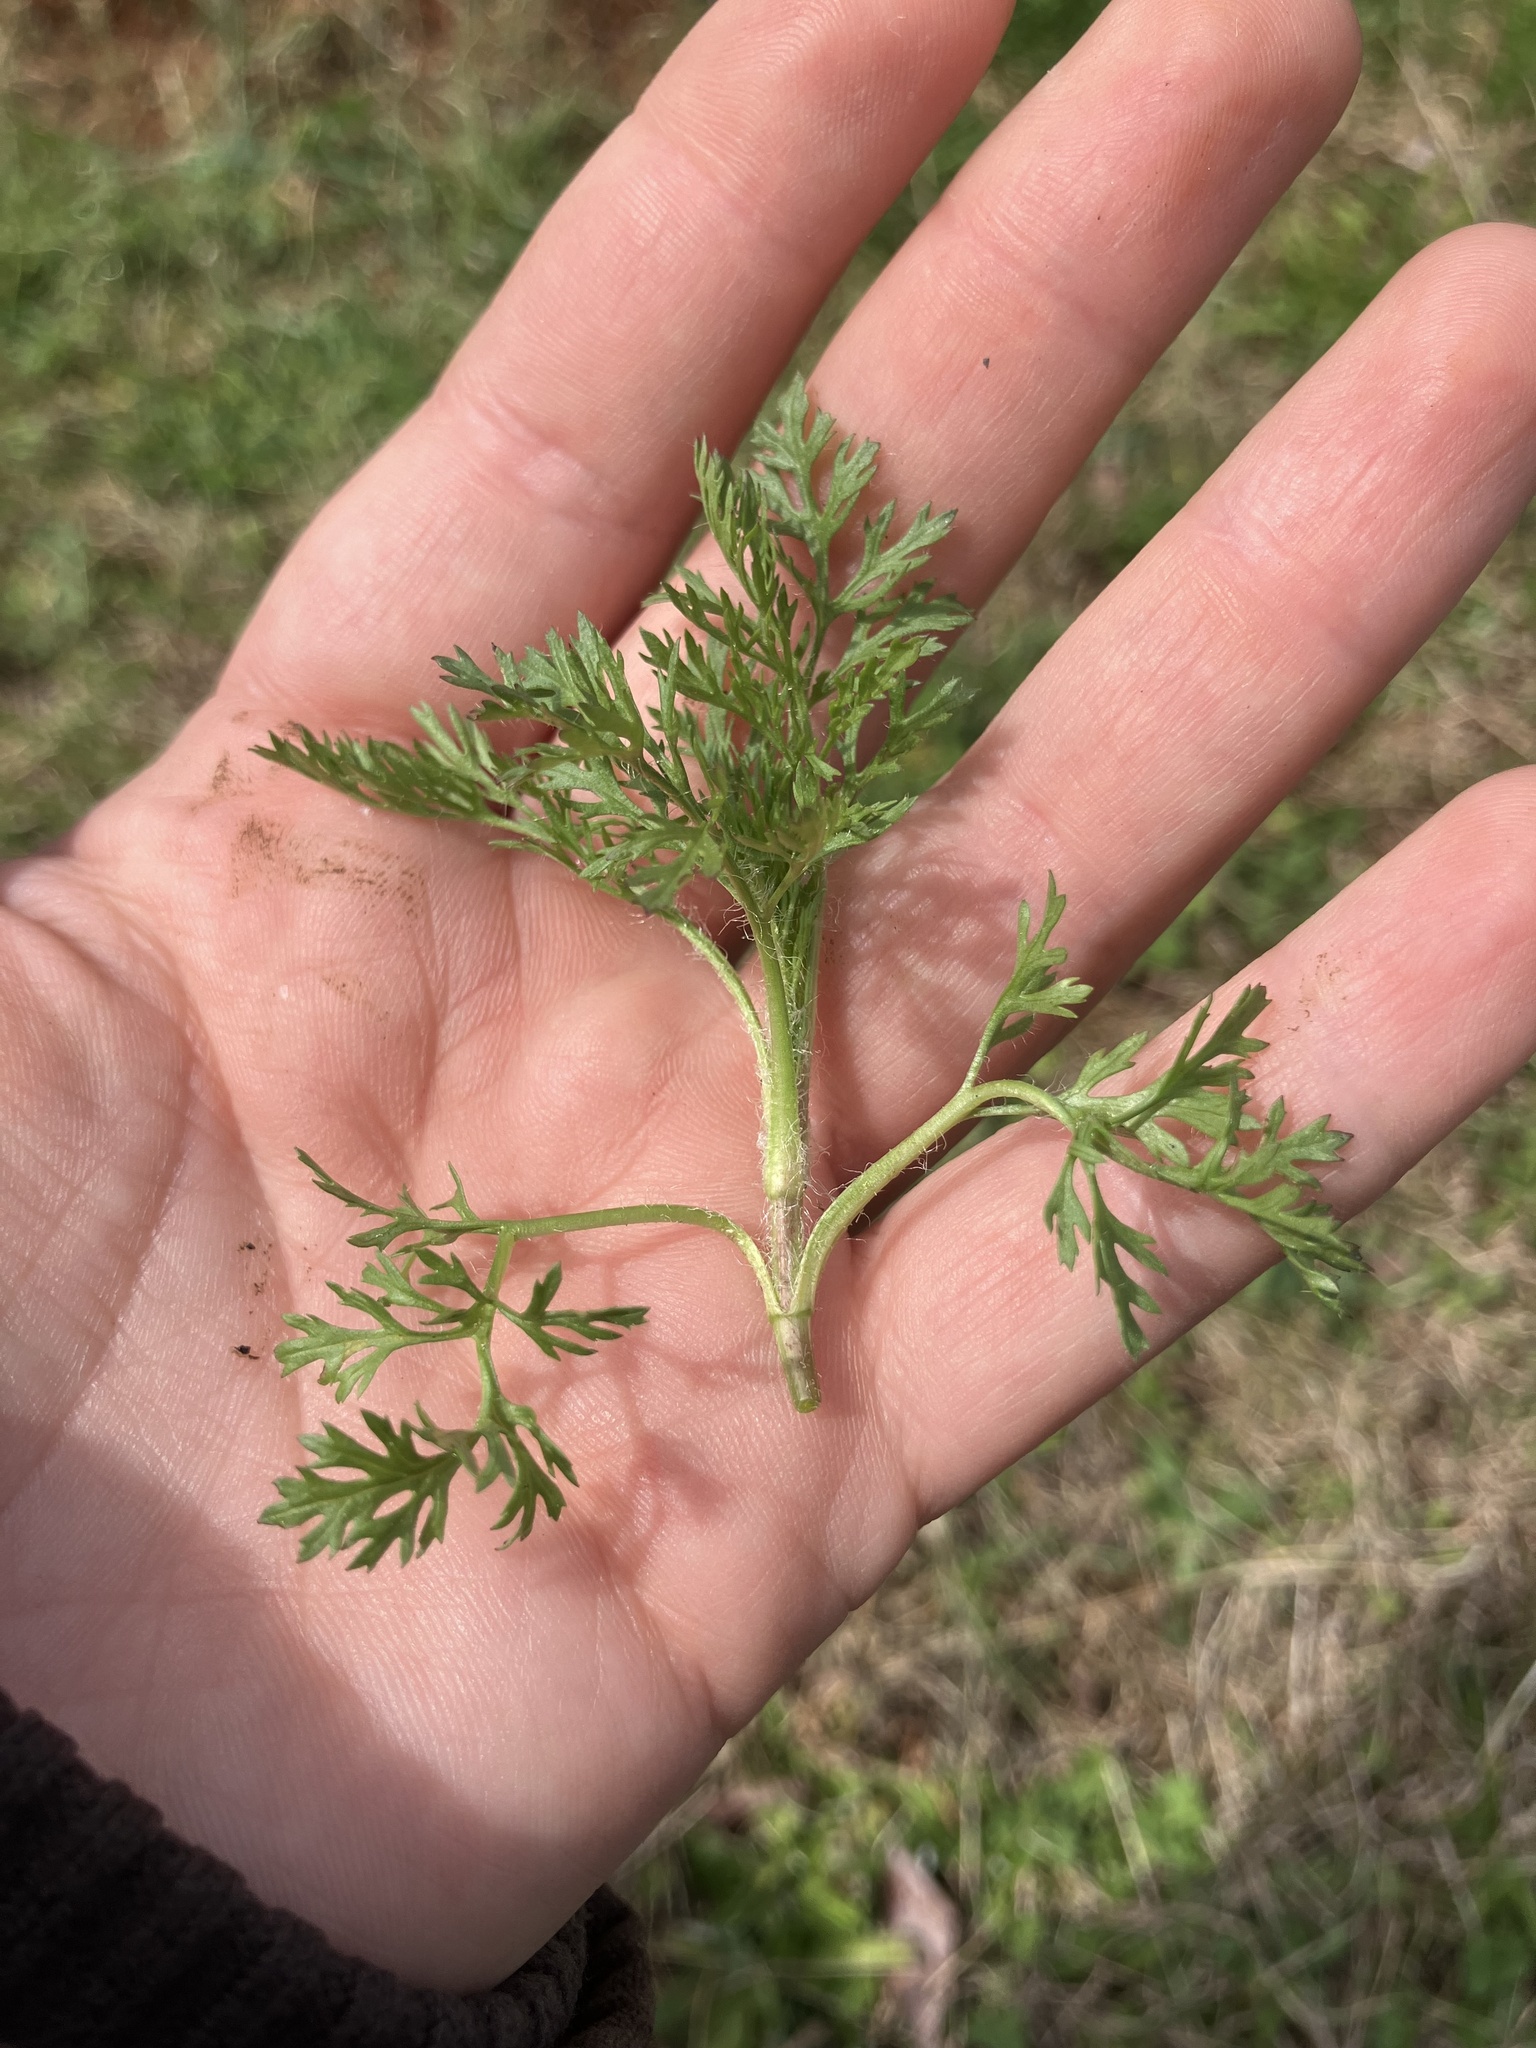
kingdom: Plantae
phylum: Tracheophyta
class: Magnoliopsida
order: Asterales
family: Asteraceae
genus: Eupatorium
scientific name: Eupatorium capillifolium
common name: Dog-fennel
